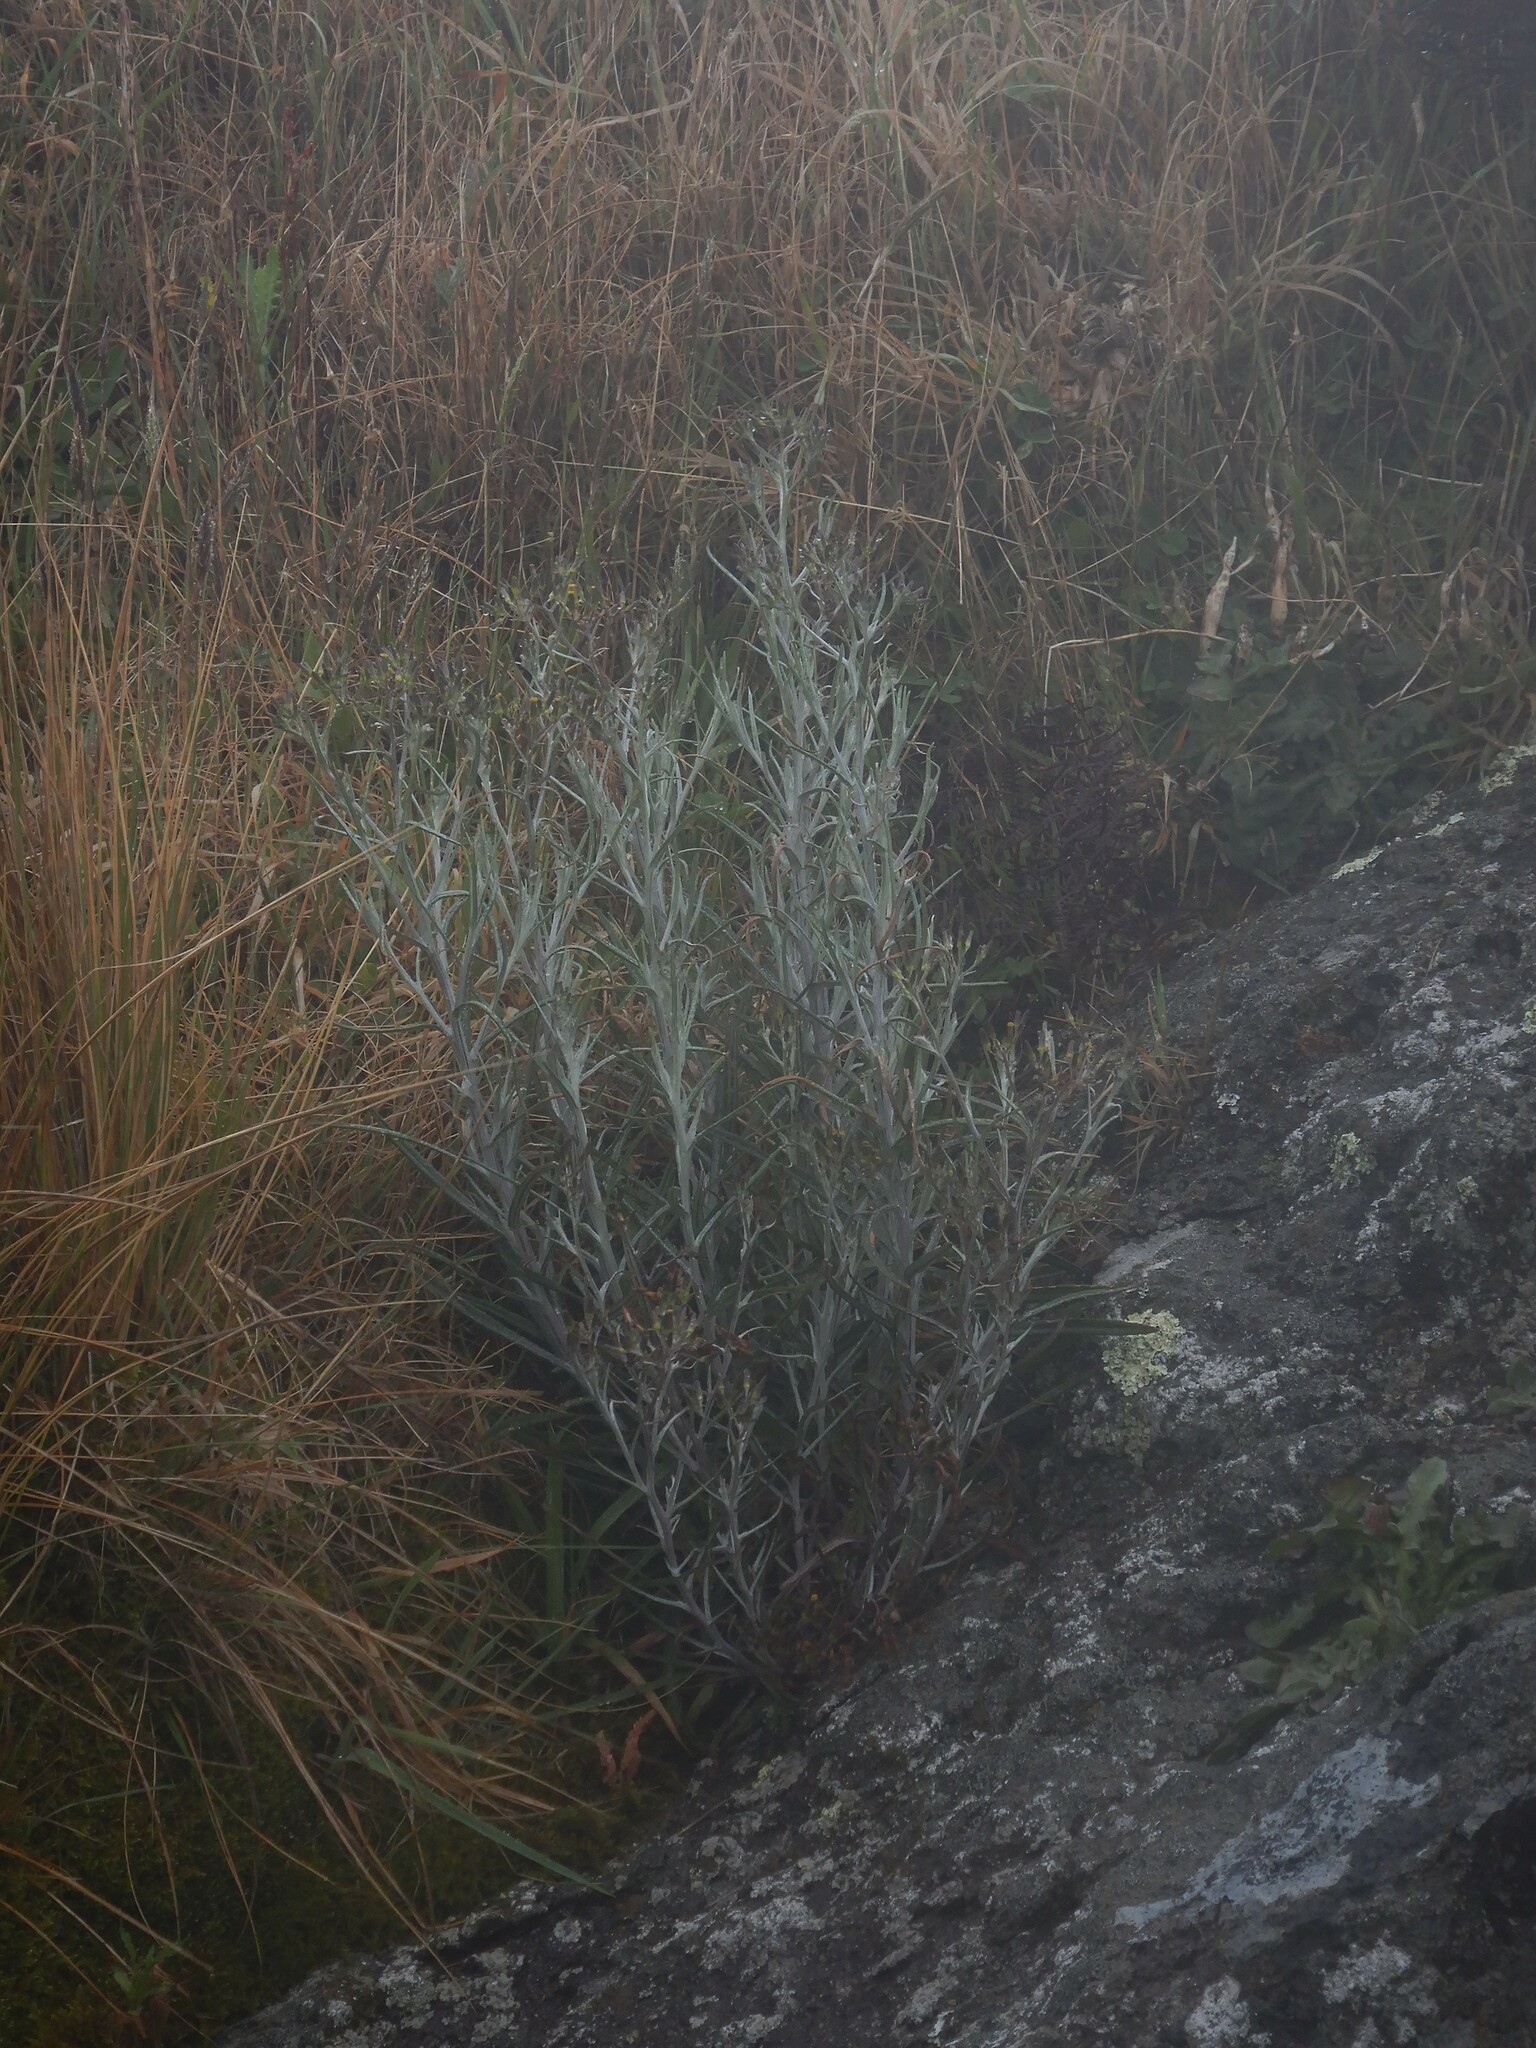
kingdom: Plantae
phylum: Tracheophyta
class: Magnoliopsida
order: Asterales
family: Asteraceae
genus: Senecio
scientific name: Senecio quadridentatus
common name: Cotton fireweed
